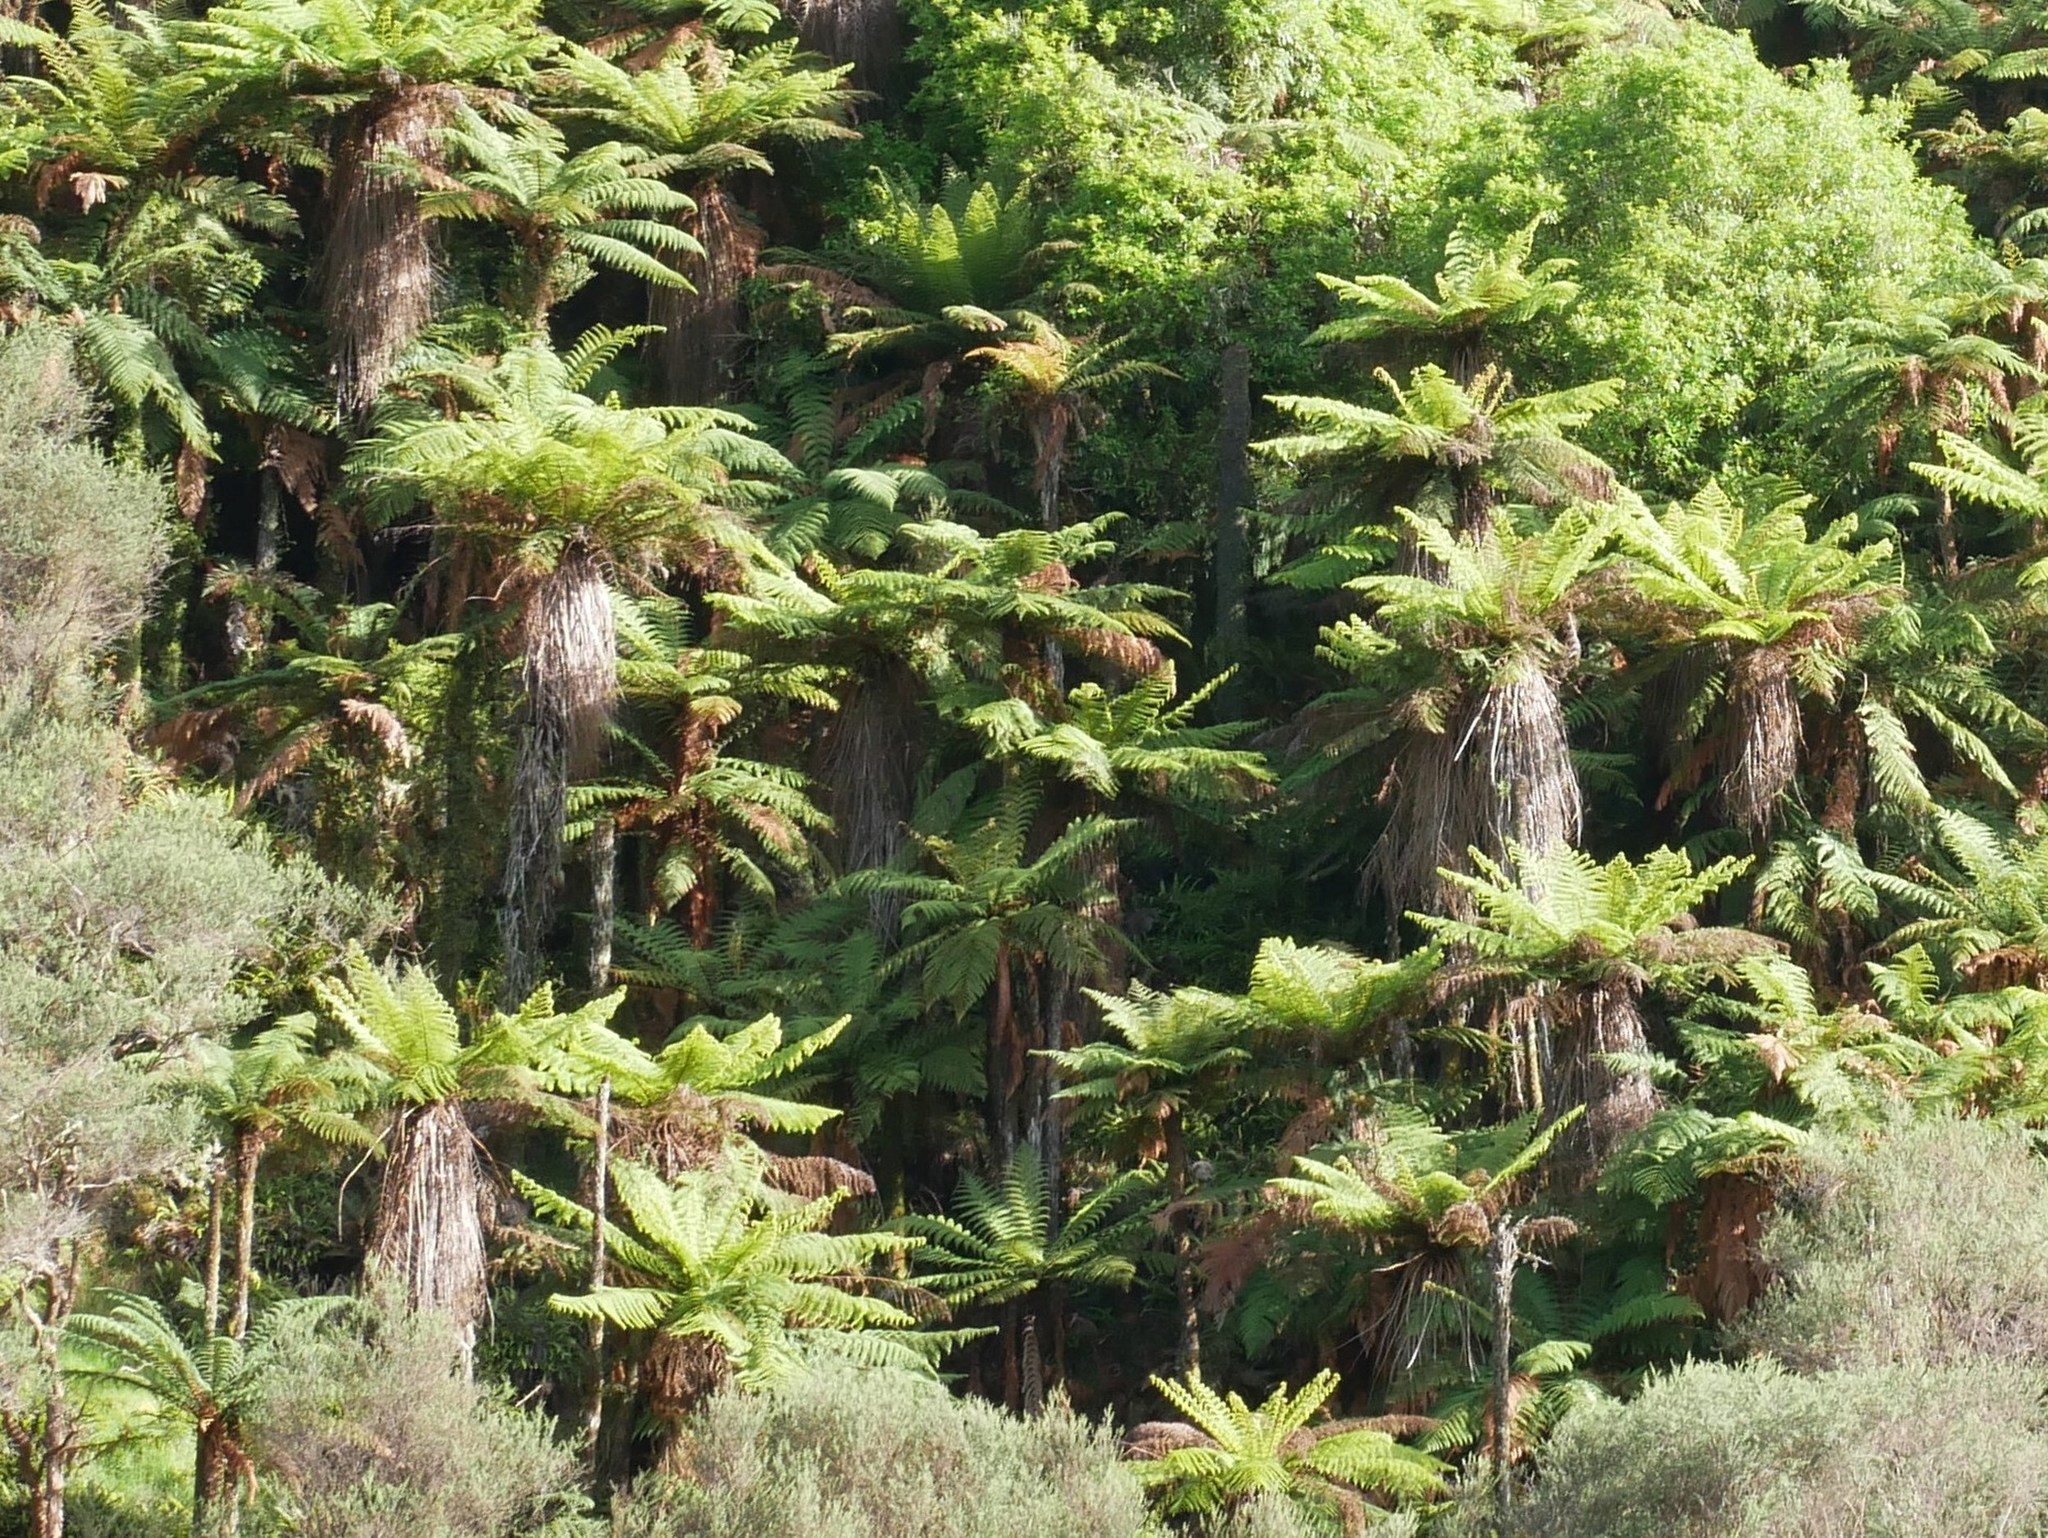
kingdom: Plantae
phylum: Tracheophyta
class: Polypodiopsida
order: Cyatheales
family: Cyatheaceae
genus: Alsophila
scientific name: Alsophila smithii
